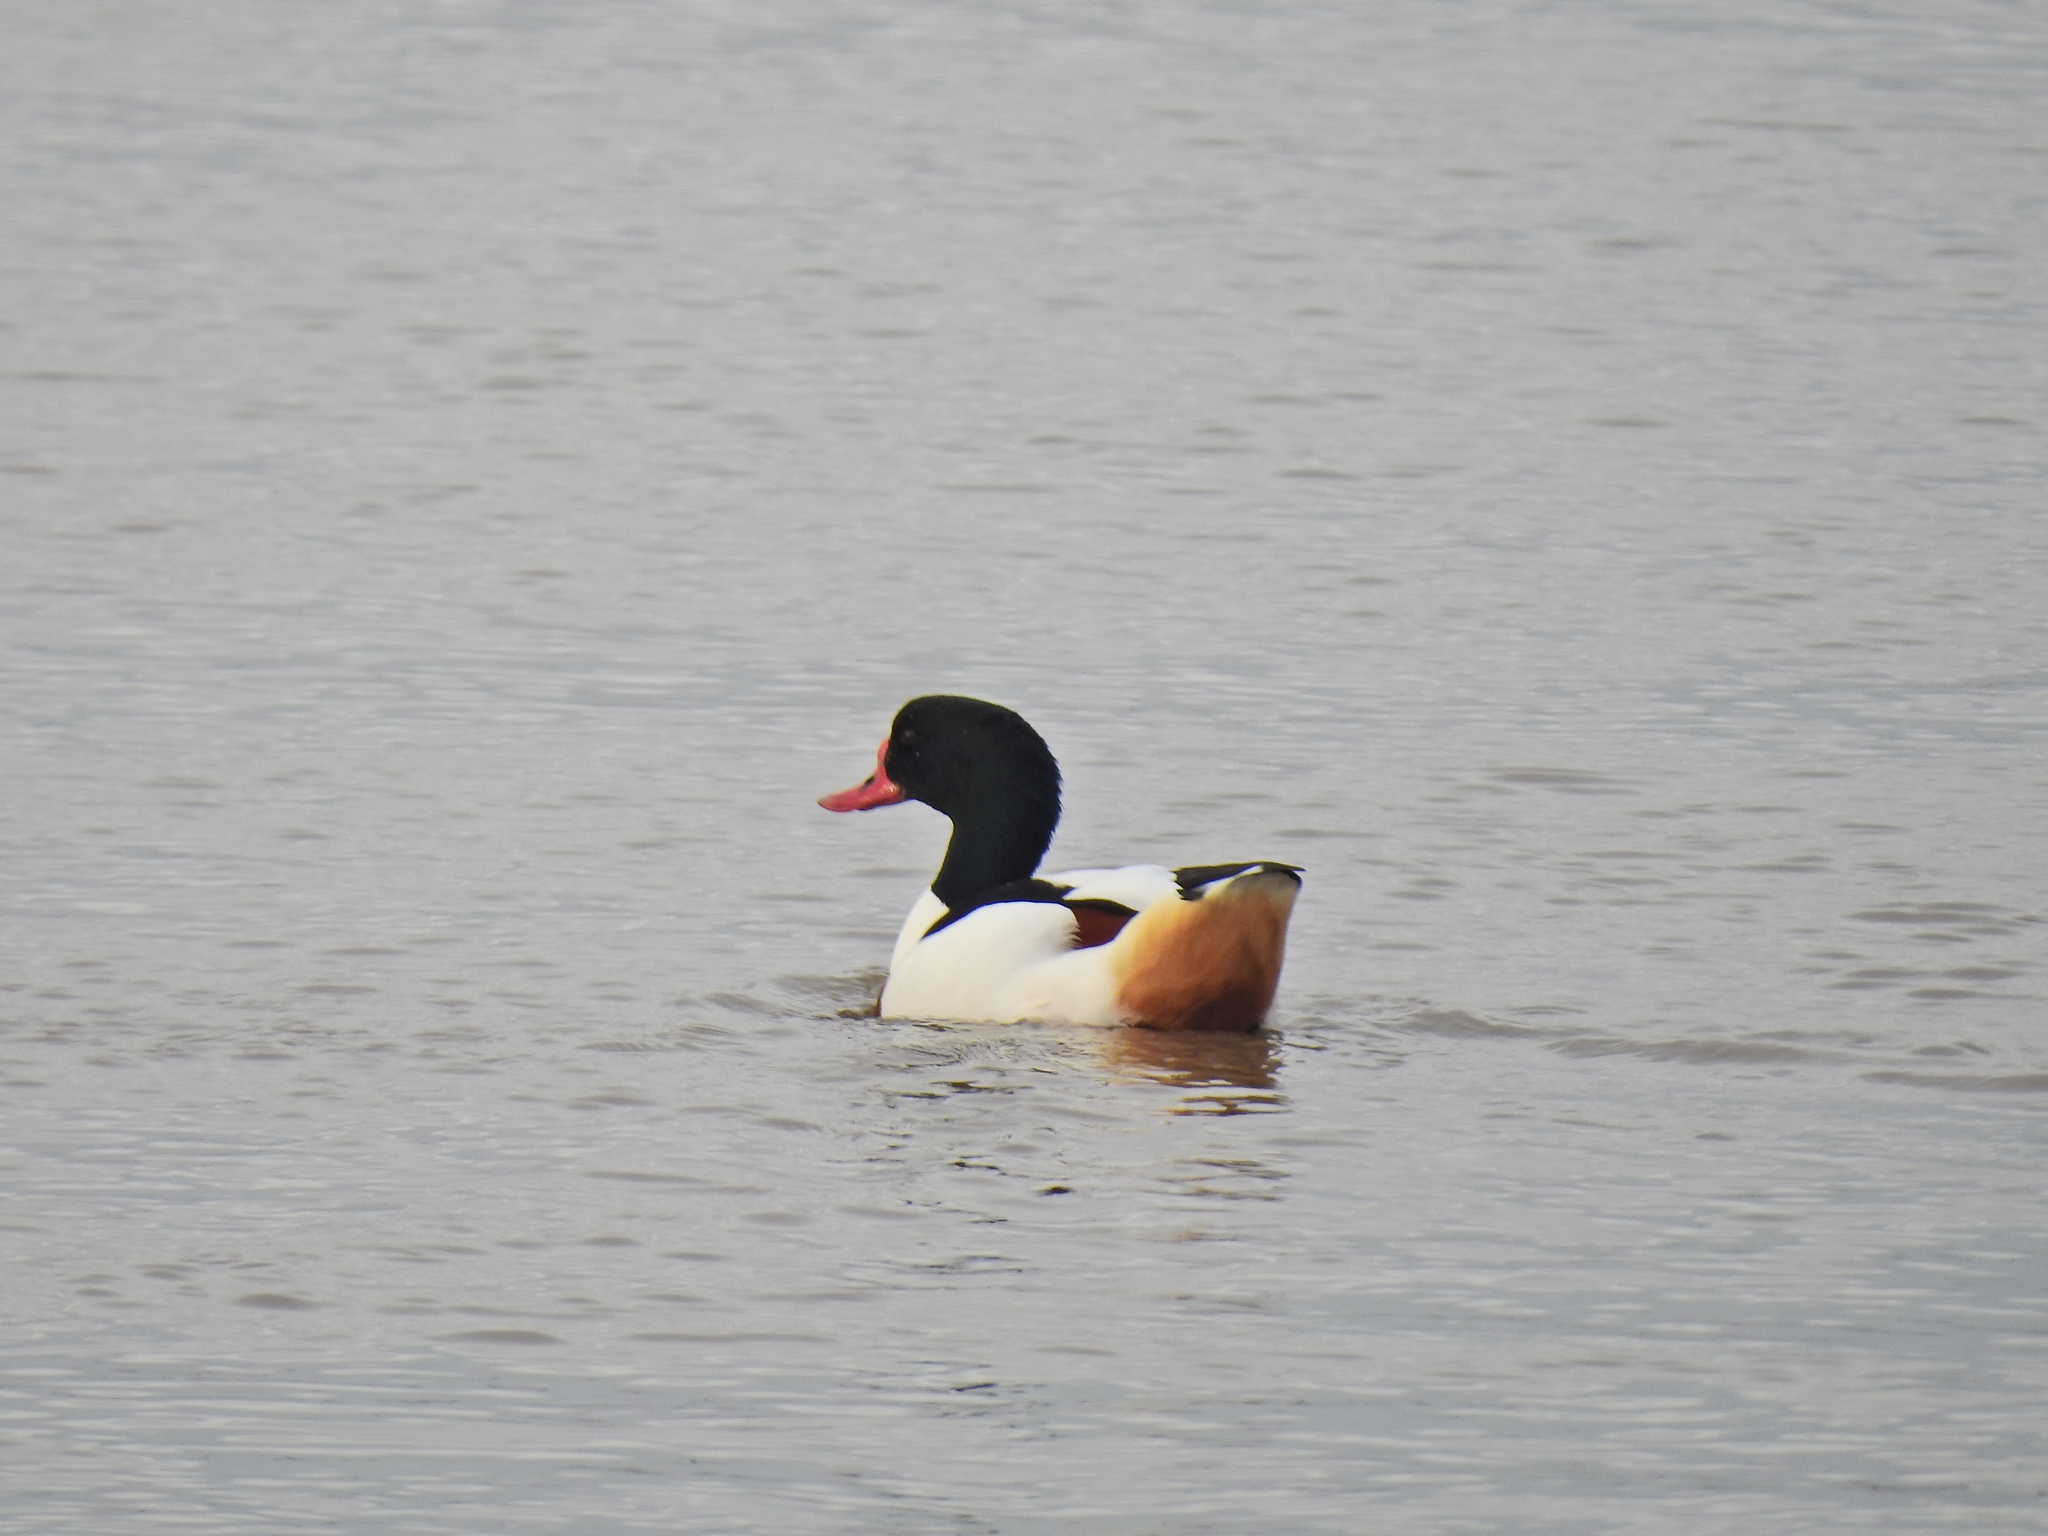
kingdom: Animalia
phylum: Chordata
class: Aves
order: Anseriformes
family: Anatidae
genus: Tadorna
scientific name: Tadorna tadorna
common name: Common shelduck
